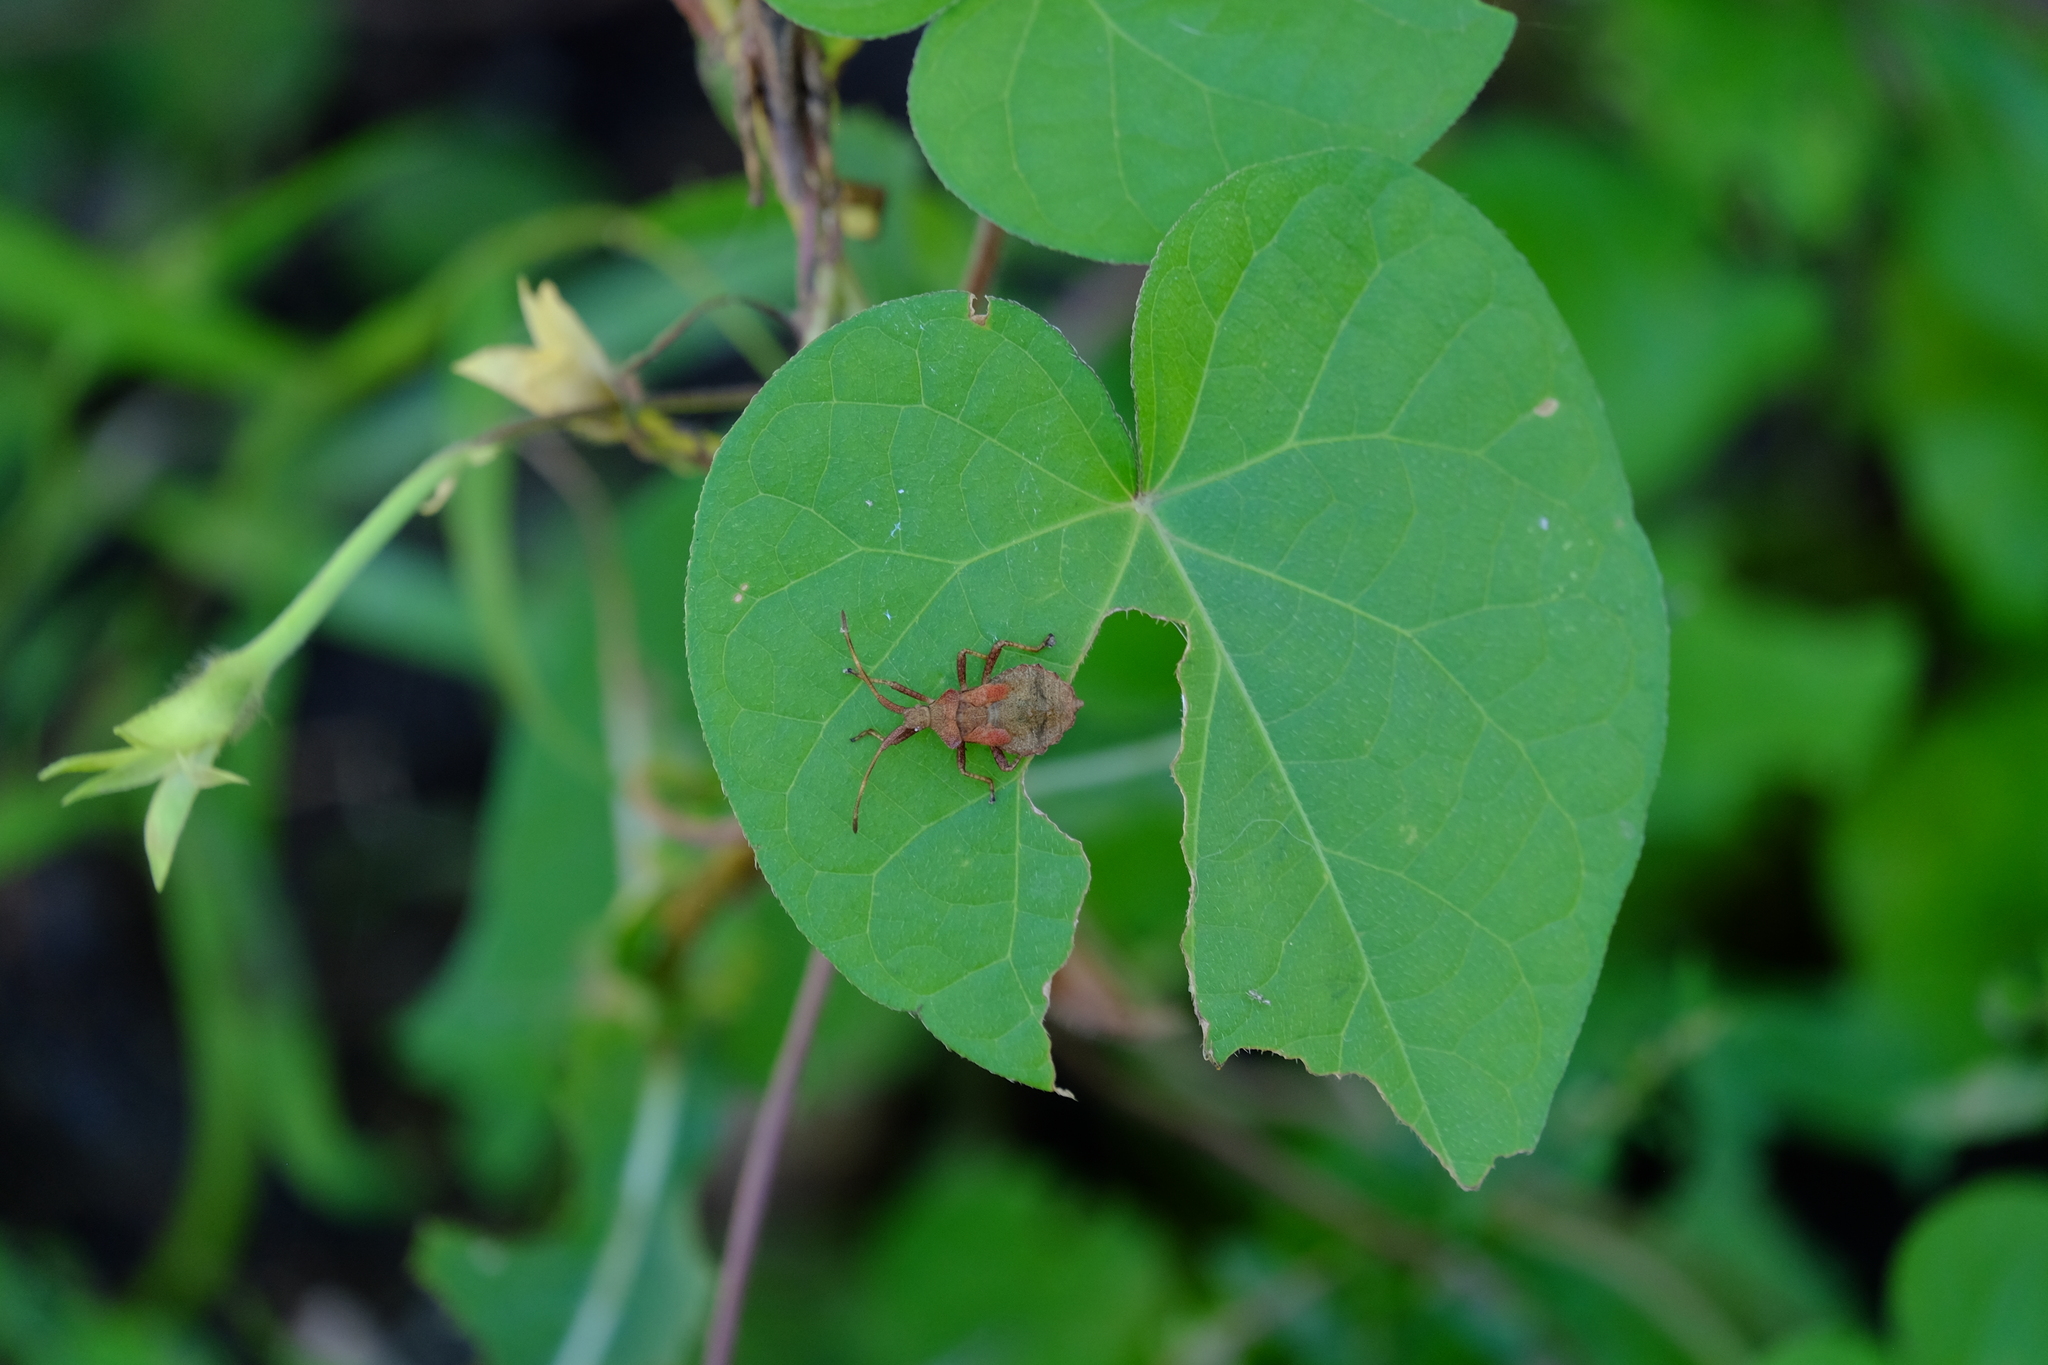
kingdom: Animalia
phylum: Arthropoda
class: Insecta
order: Hemiptera
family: Coreidae
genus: Coreus
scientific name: Coreus marginatus
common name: Dock bug
